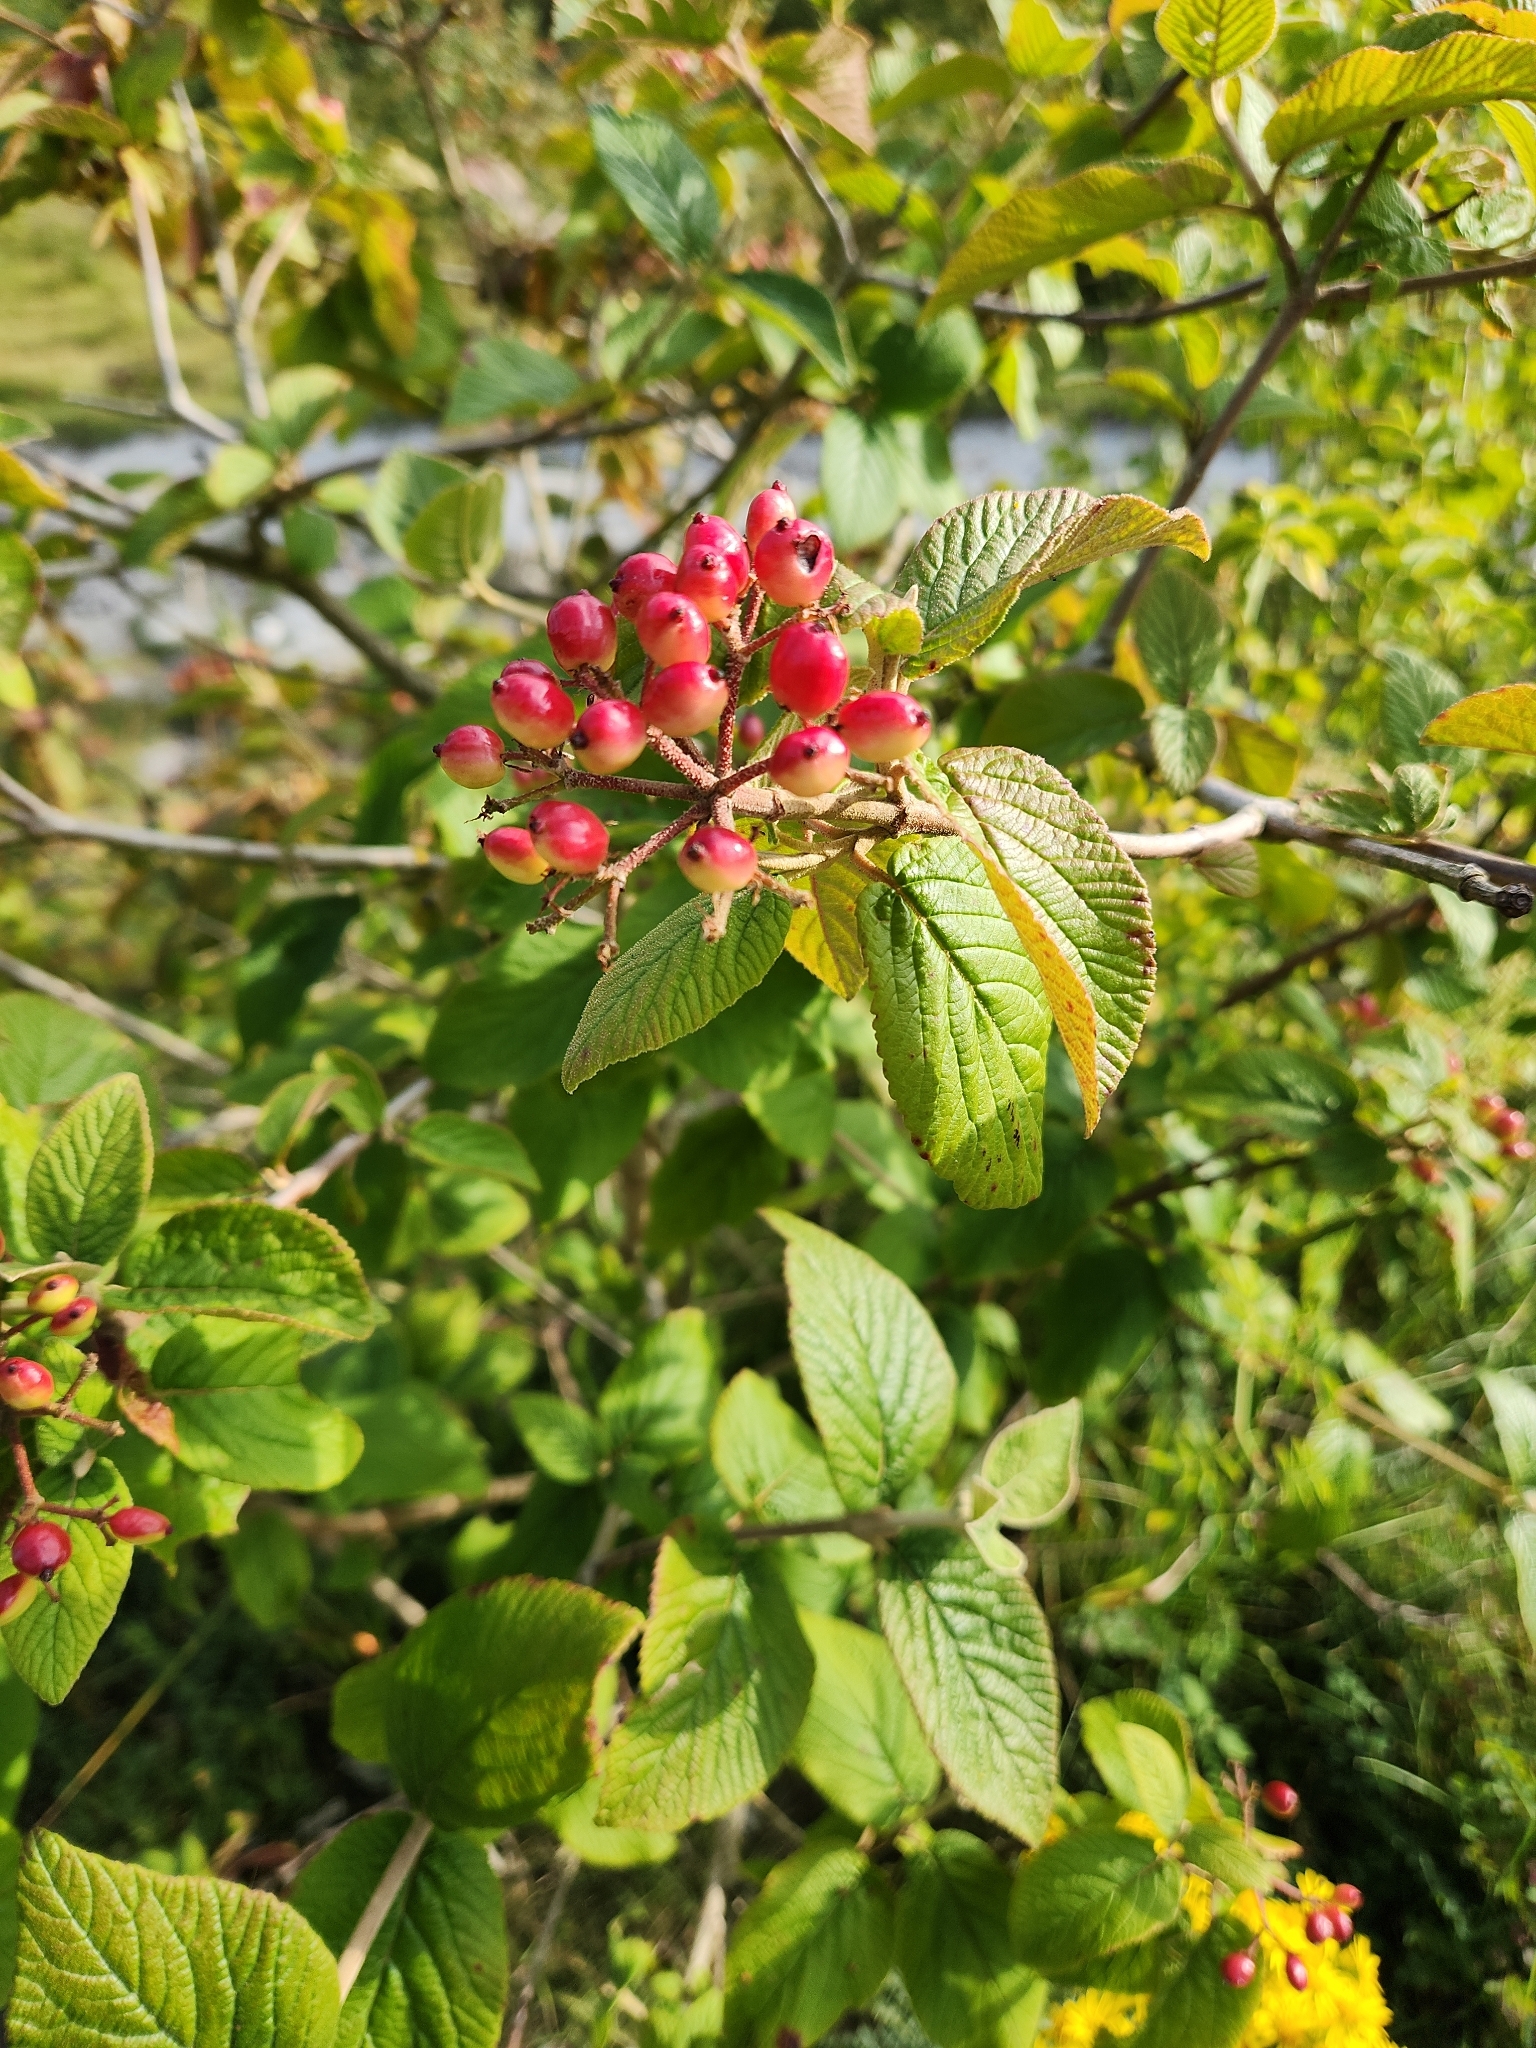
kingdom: Plantae
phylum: Tracheophyta
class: Magnoliopsida
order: Dipsacales
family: Viburnaceae
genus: Viburnum
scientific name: Viburnum lantana
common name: Wayfaring tree
